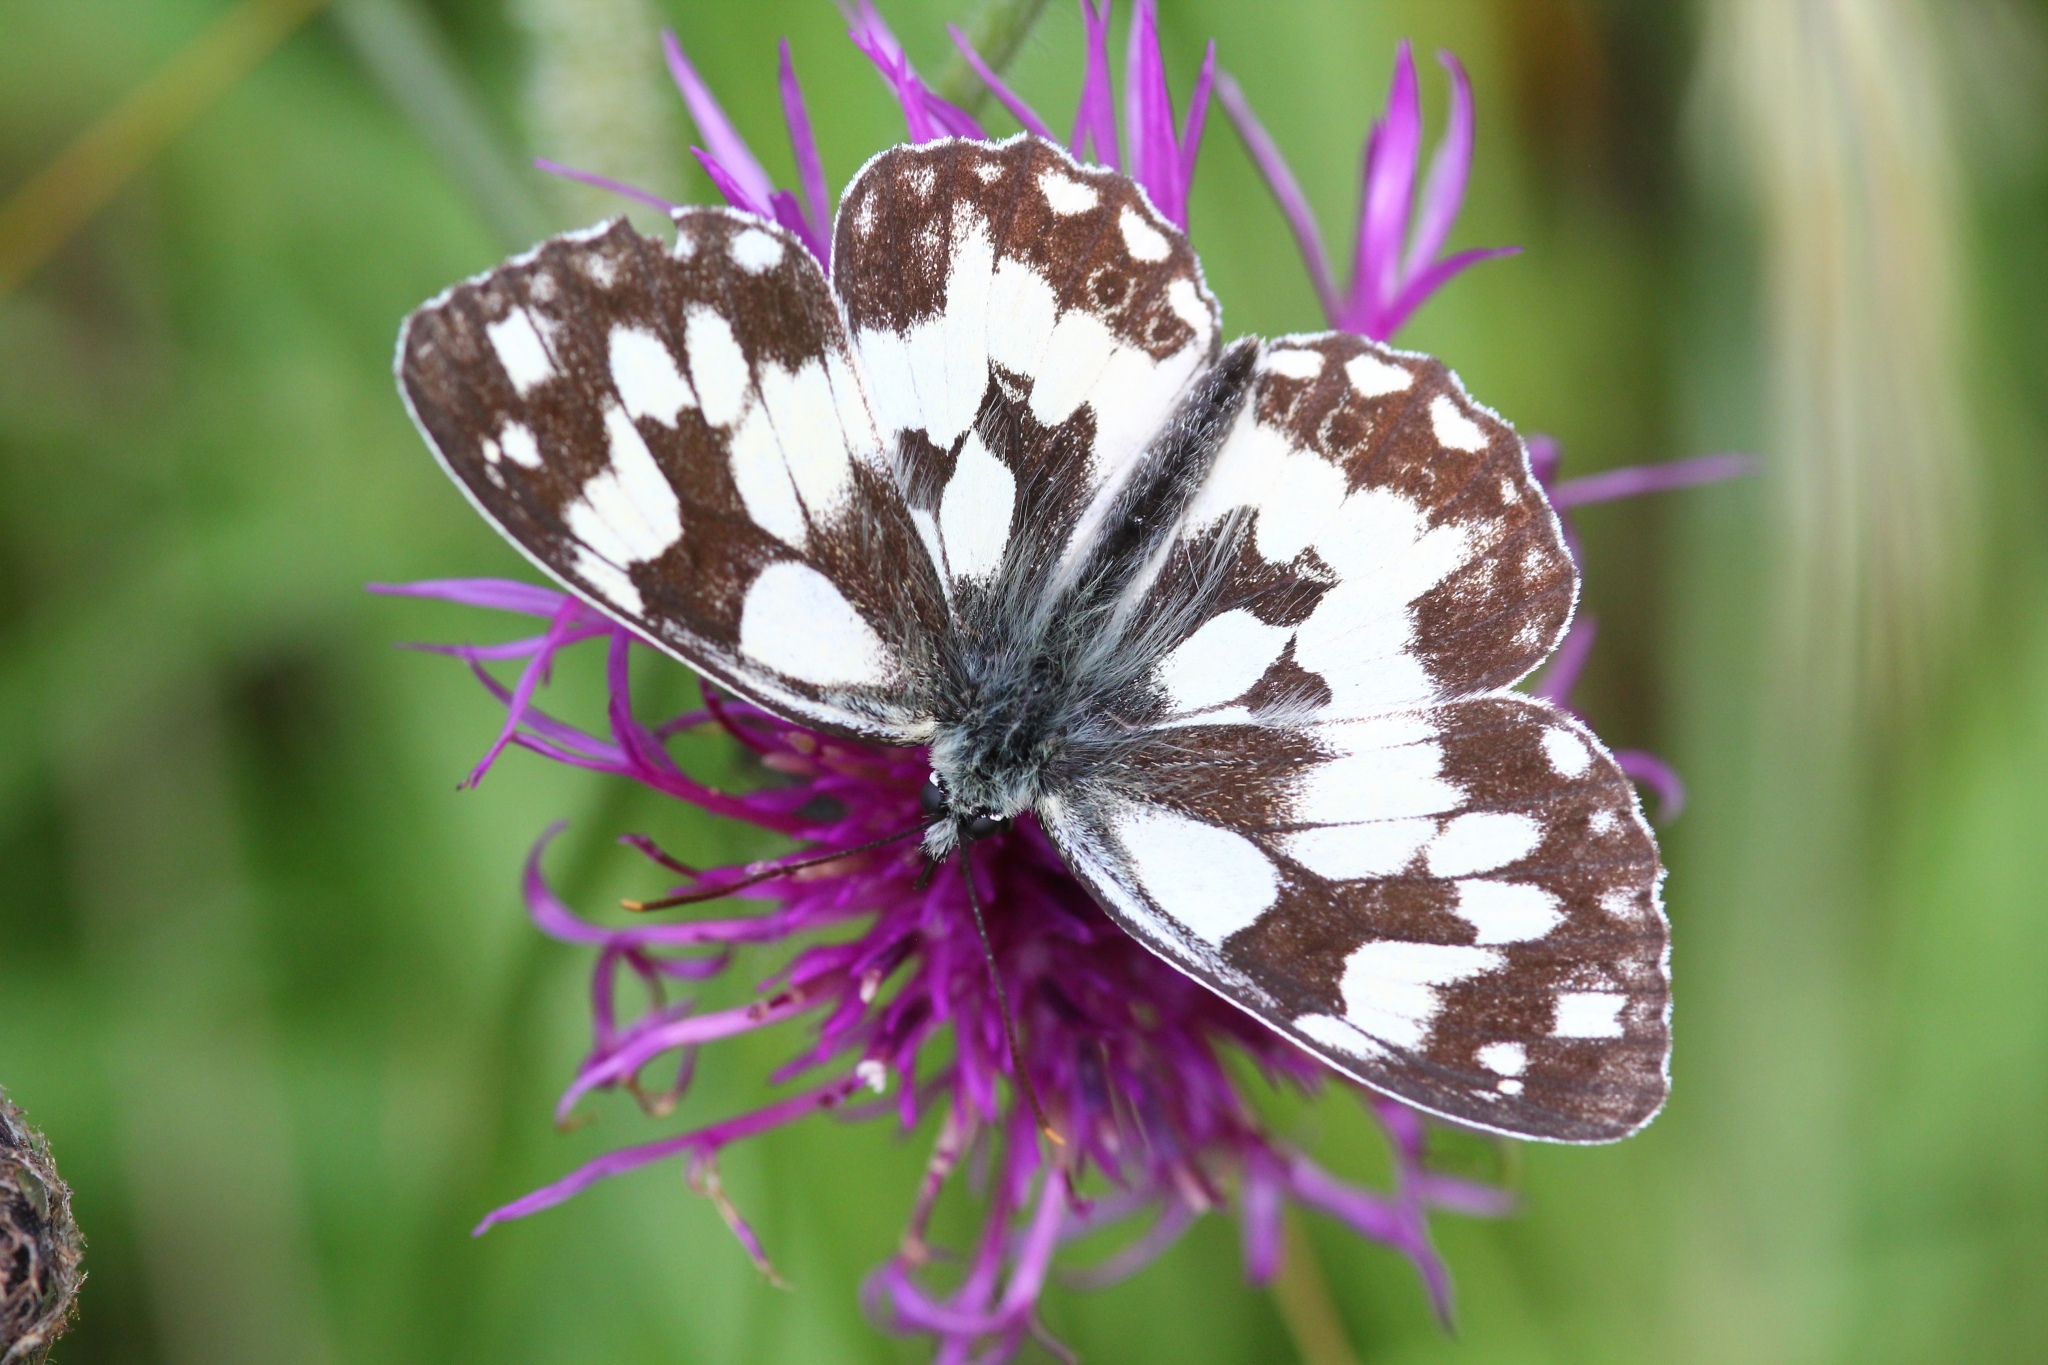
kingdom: Animalia
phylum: Arthropoda
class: Insecta
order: Lepidoptera
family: Nymphalidae
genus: Melanargia
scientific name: Melanargia galathea
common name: Marbled white
